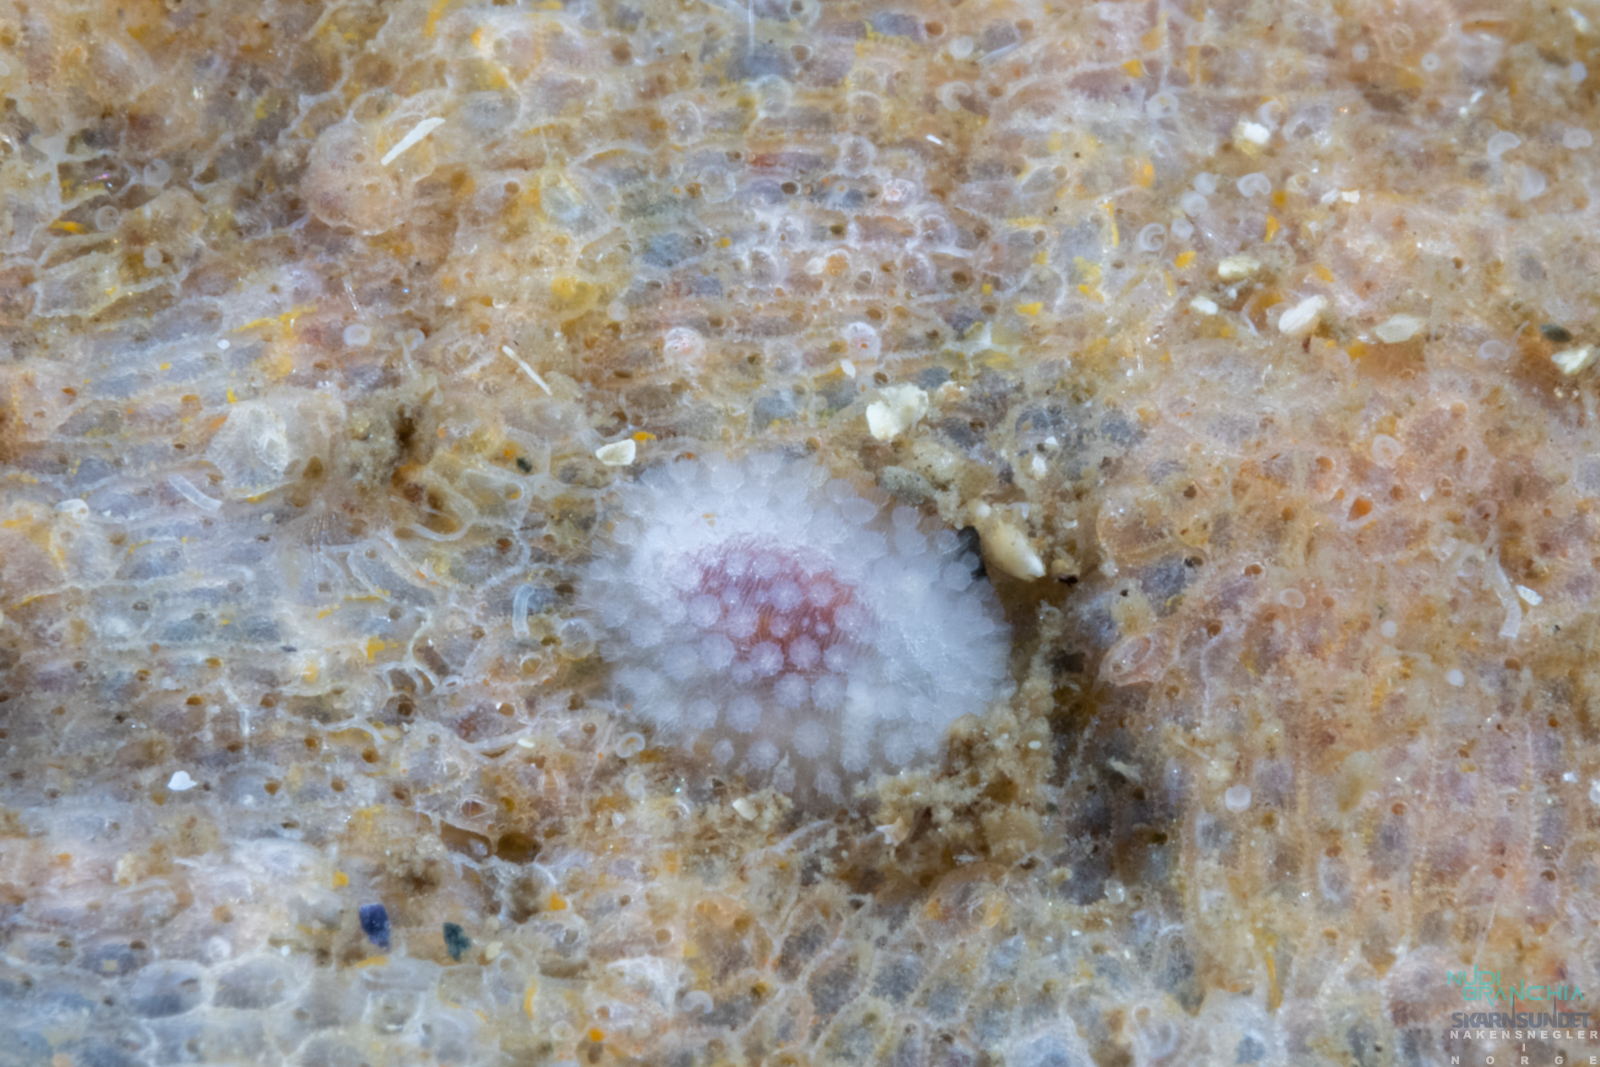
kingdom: Animalia
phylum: Mollusca
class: Gastropoda
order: Nudibranchia
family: Onchidorididae
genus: Onchidoris
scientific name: Onchidoris muricata
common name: Rough doris
